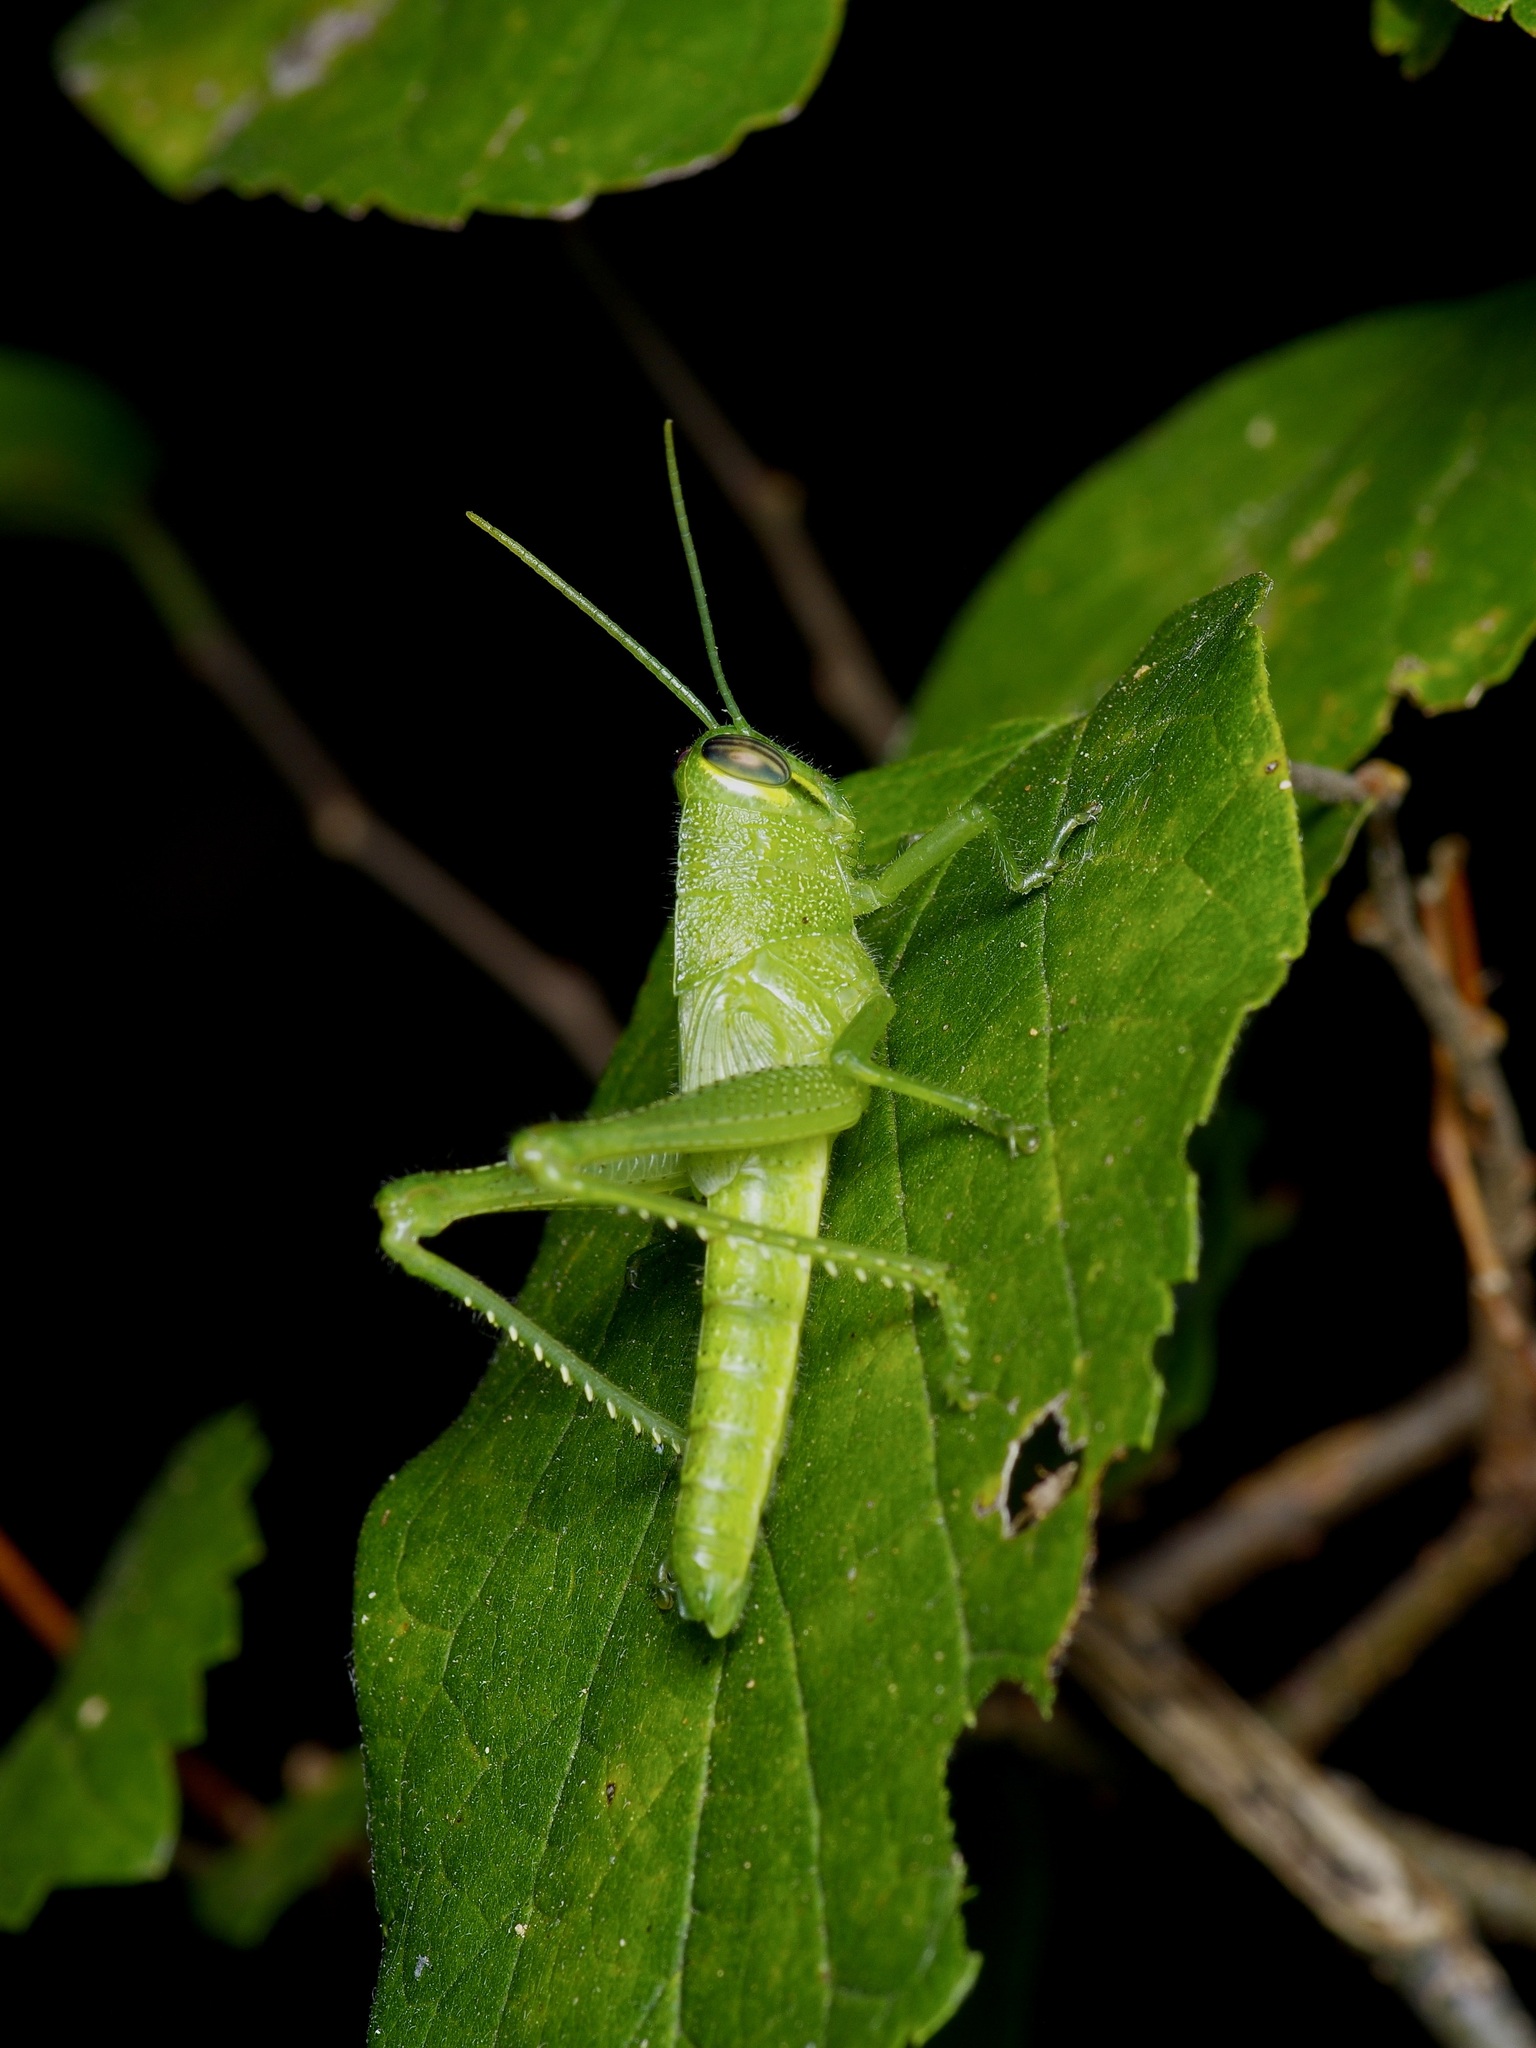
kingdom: Animalia
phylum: Arthropoda
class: Insecta
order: Orthoptera
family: Acrididae
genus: Schistocerca
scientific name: Schistocerca obscura
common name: Obscure bird grasshopper
